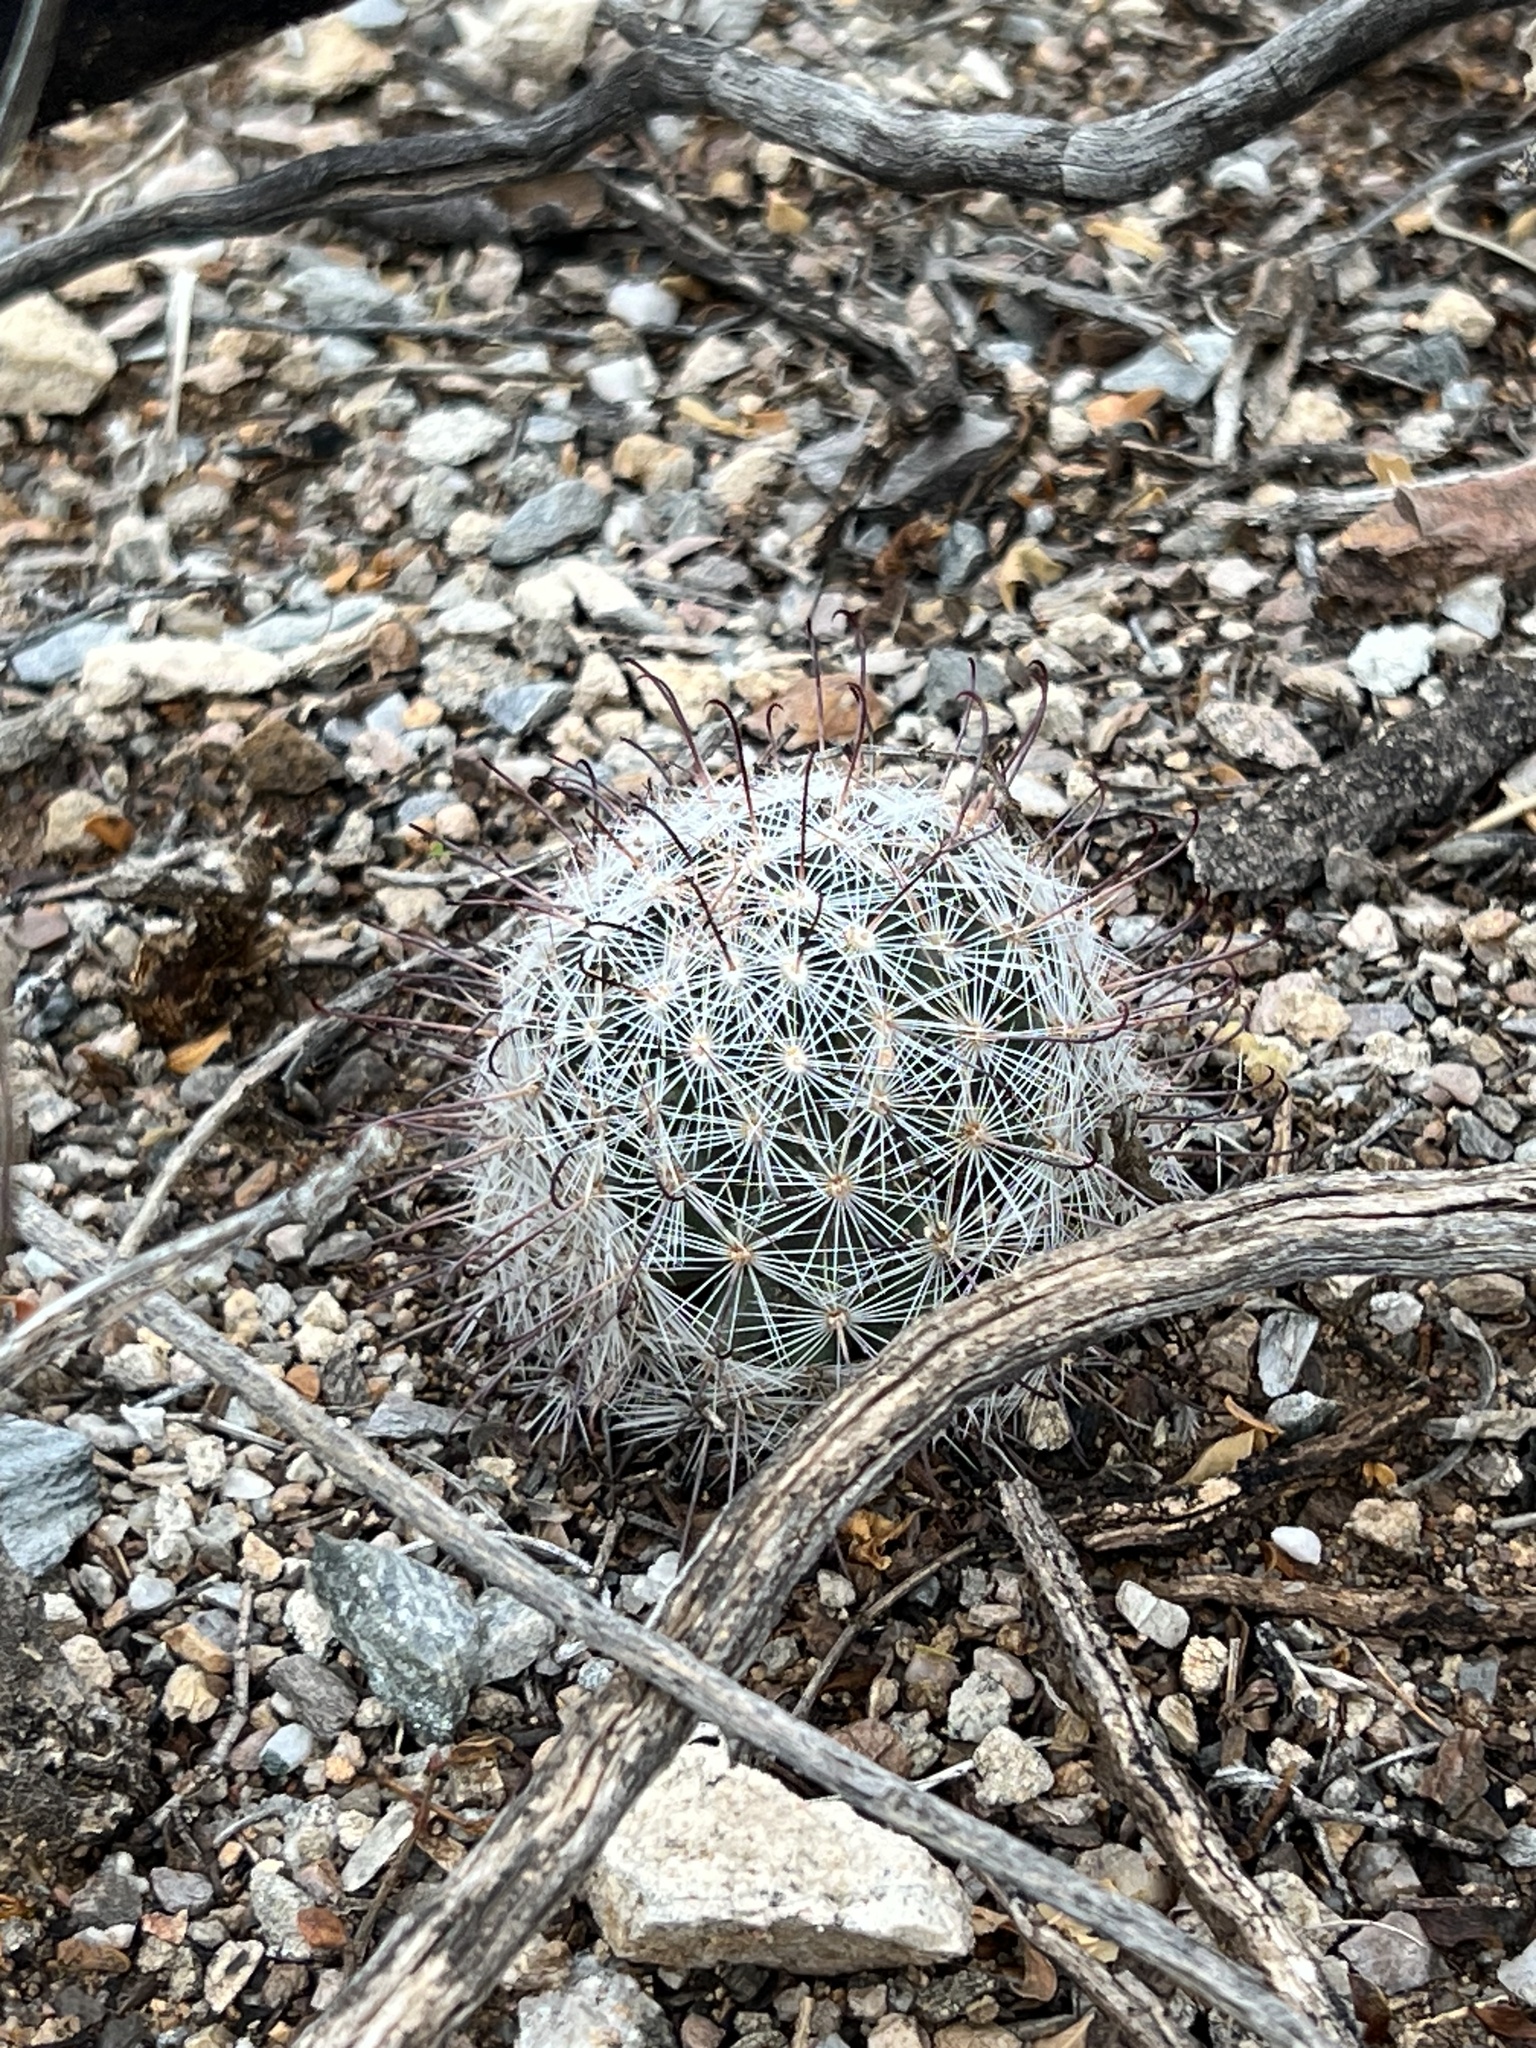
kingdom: Plantae
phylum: Tracheophyta
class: Magnoliopsida
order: Caryophyllales
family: Cactaceae
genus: Cochemiea
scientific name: Cochemiea grahamii
